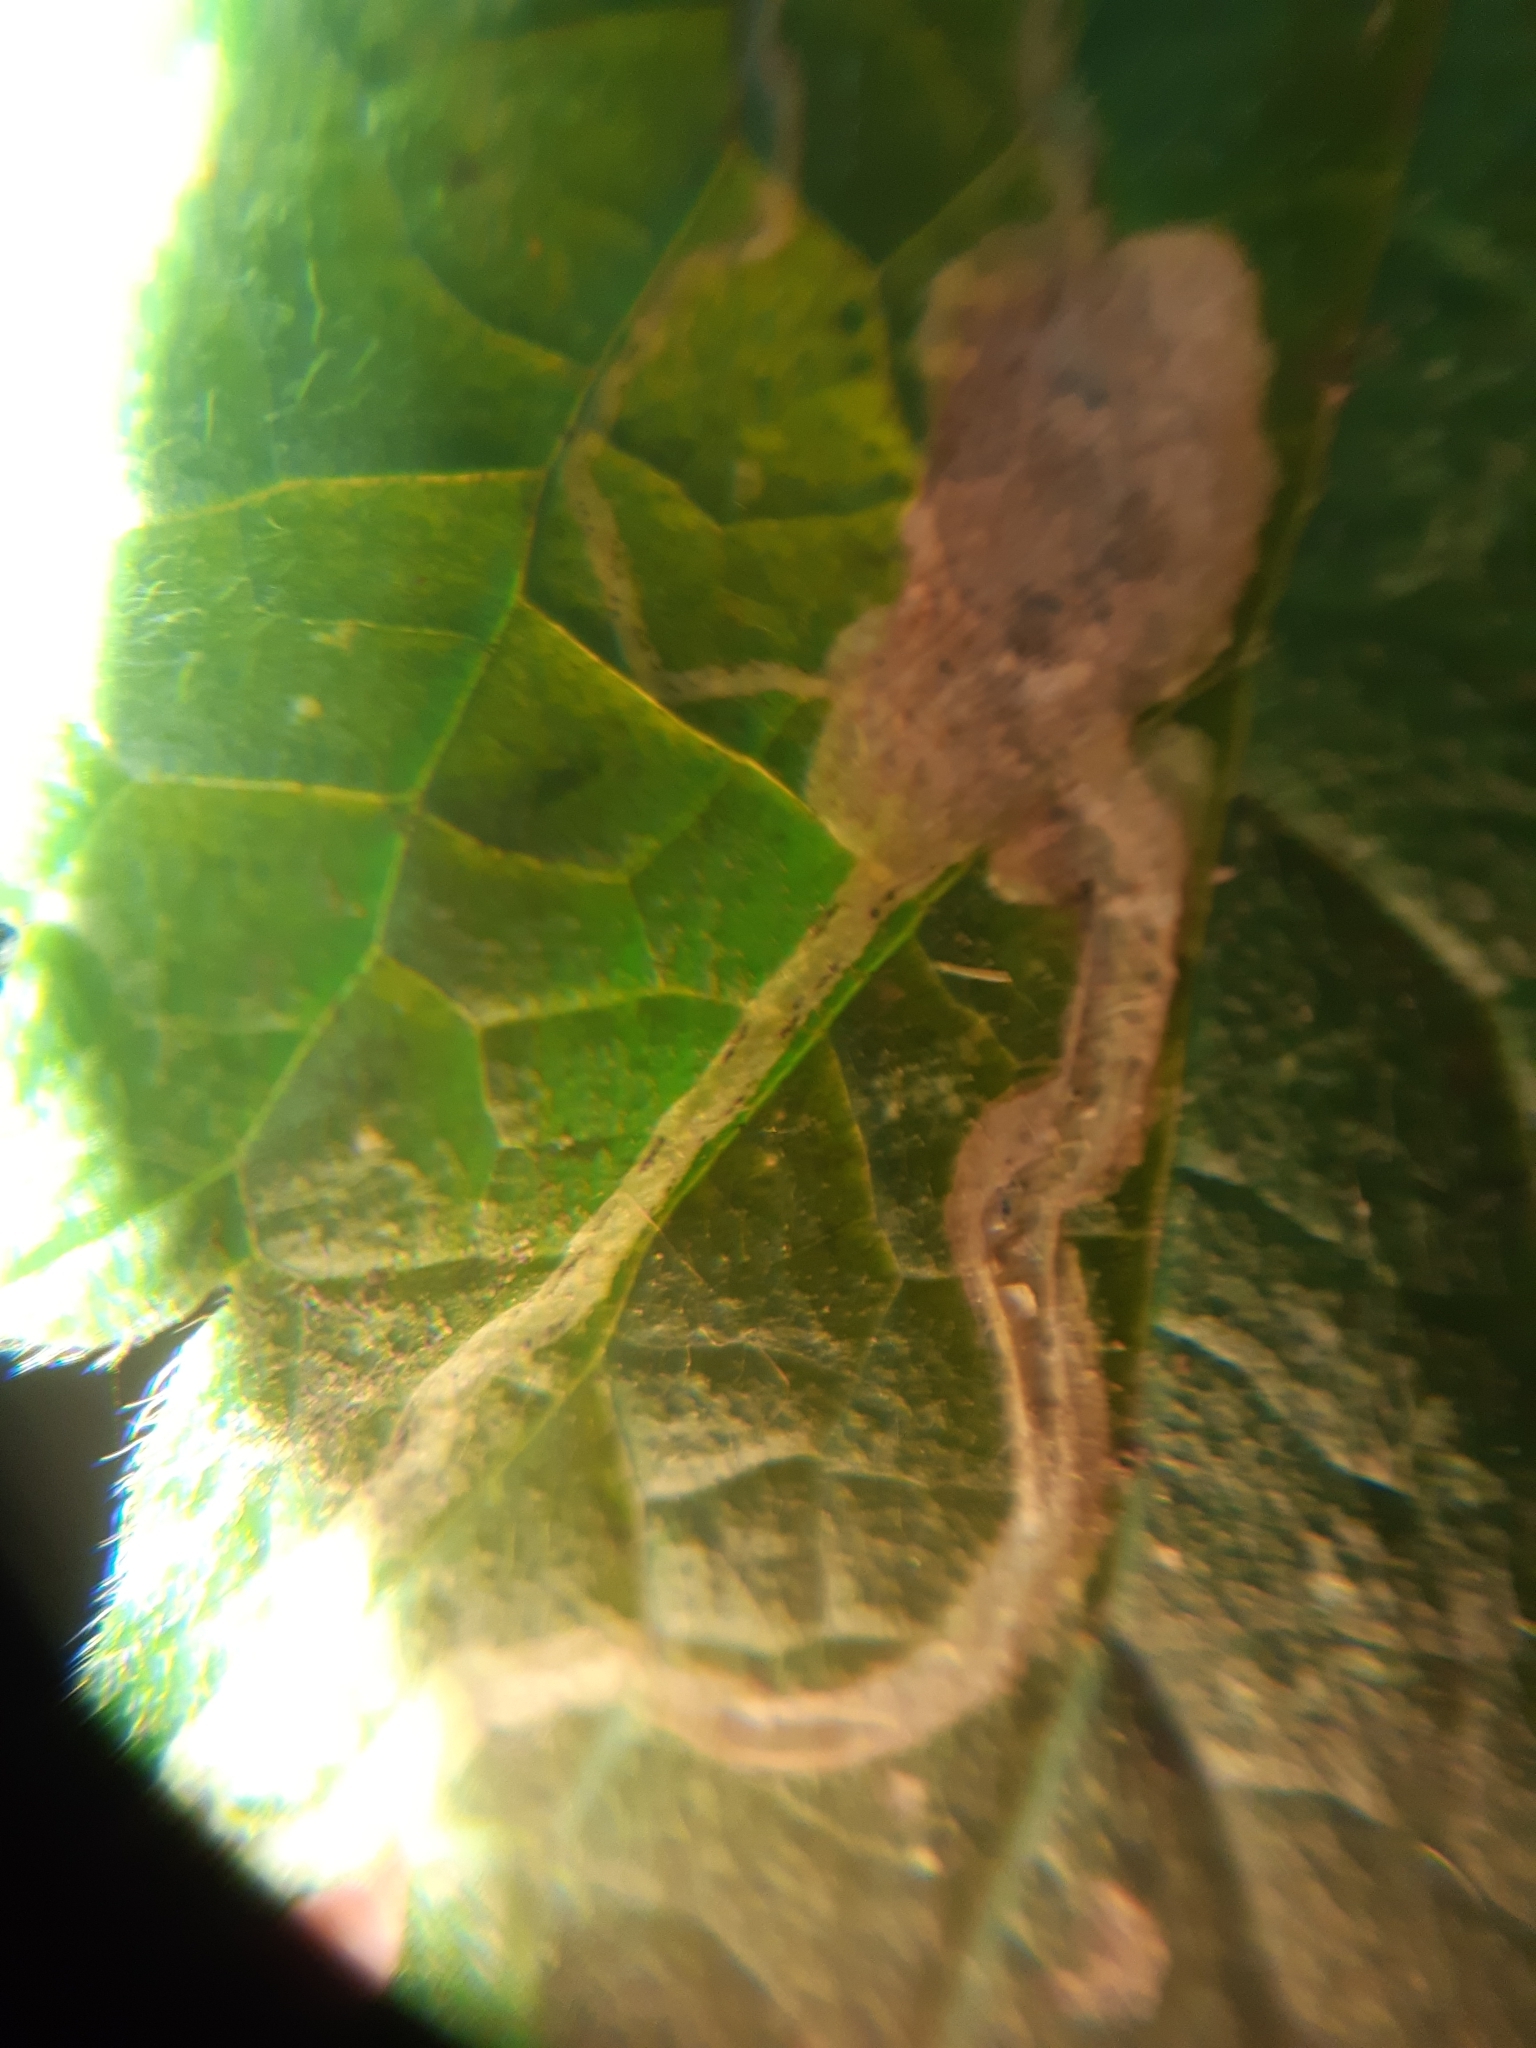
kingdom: Animalia
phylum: Arthropoda
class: Insecta
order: Diptera
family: Agromyzidae
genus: Amauromyza
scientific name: Amauromyza lamii
